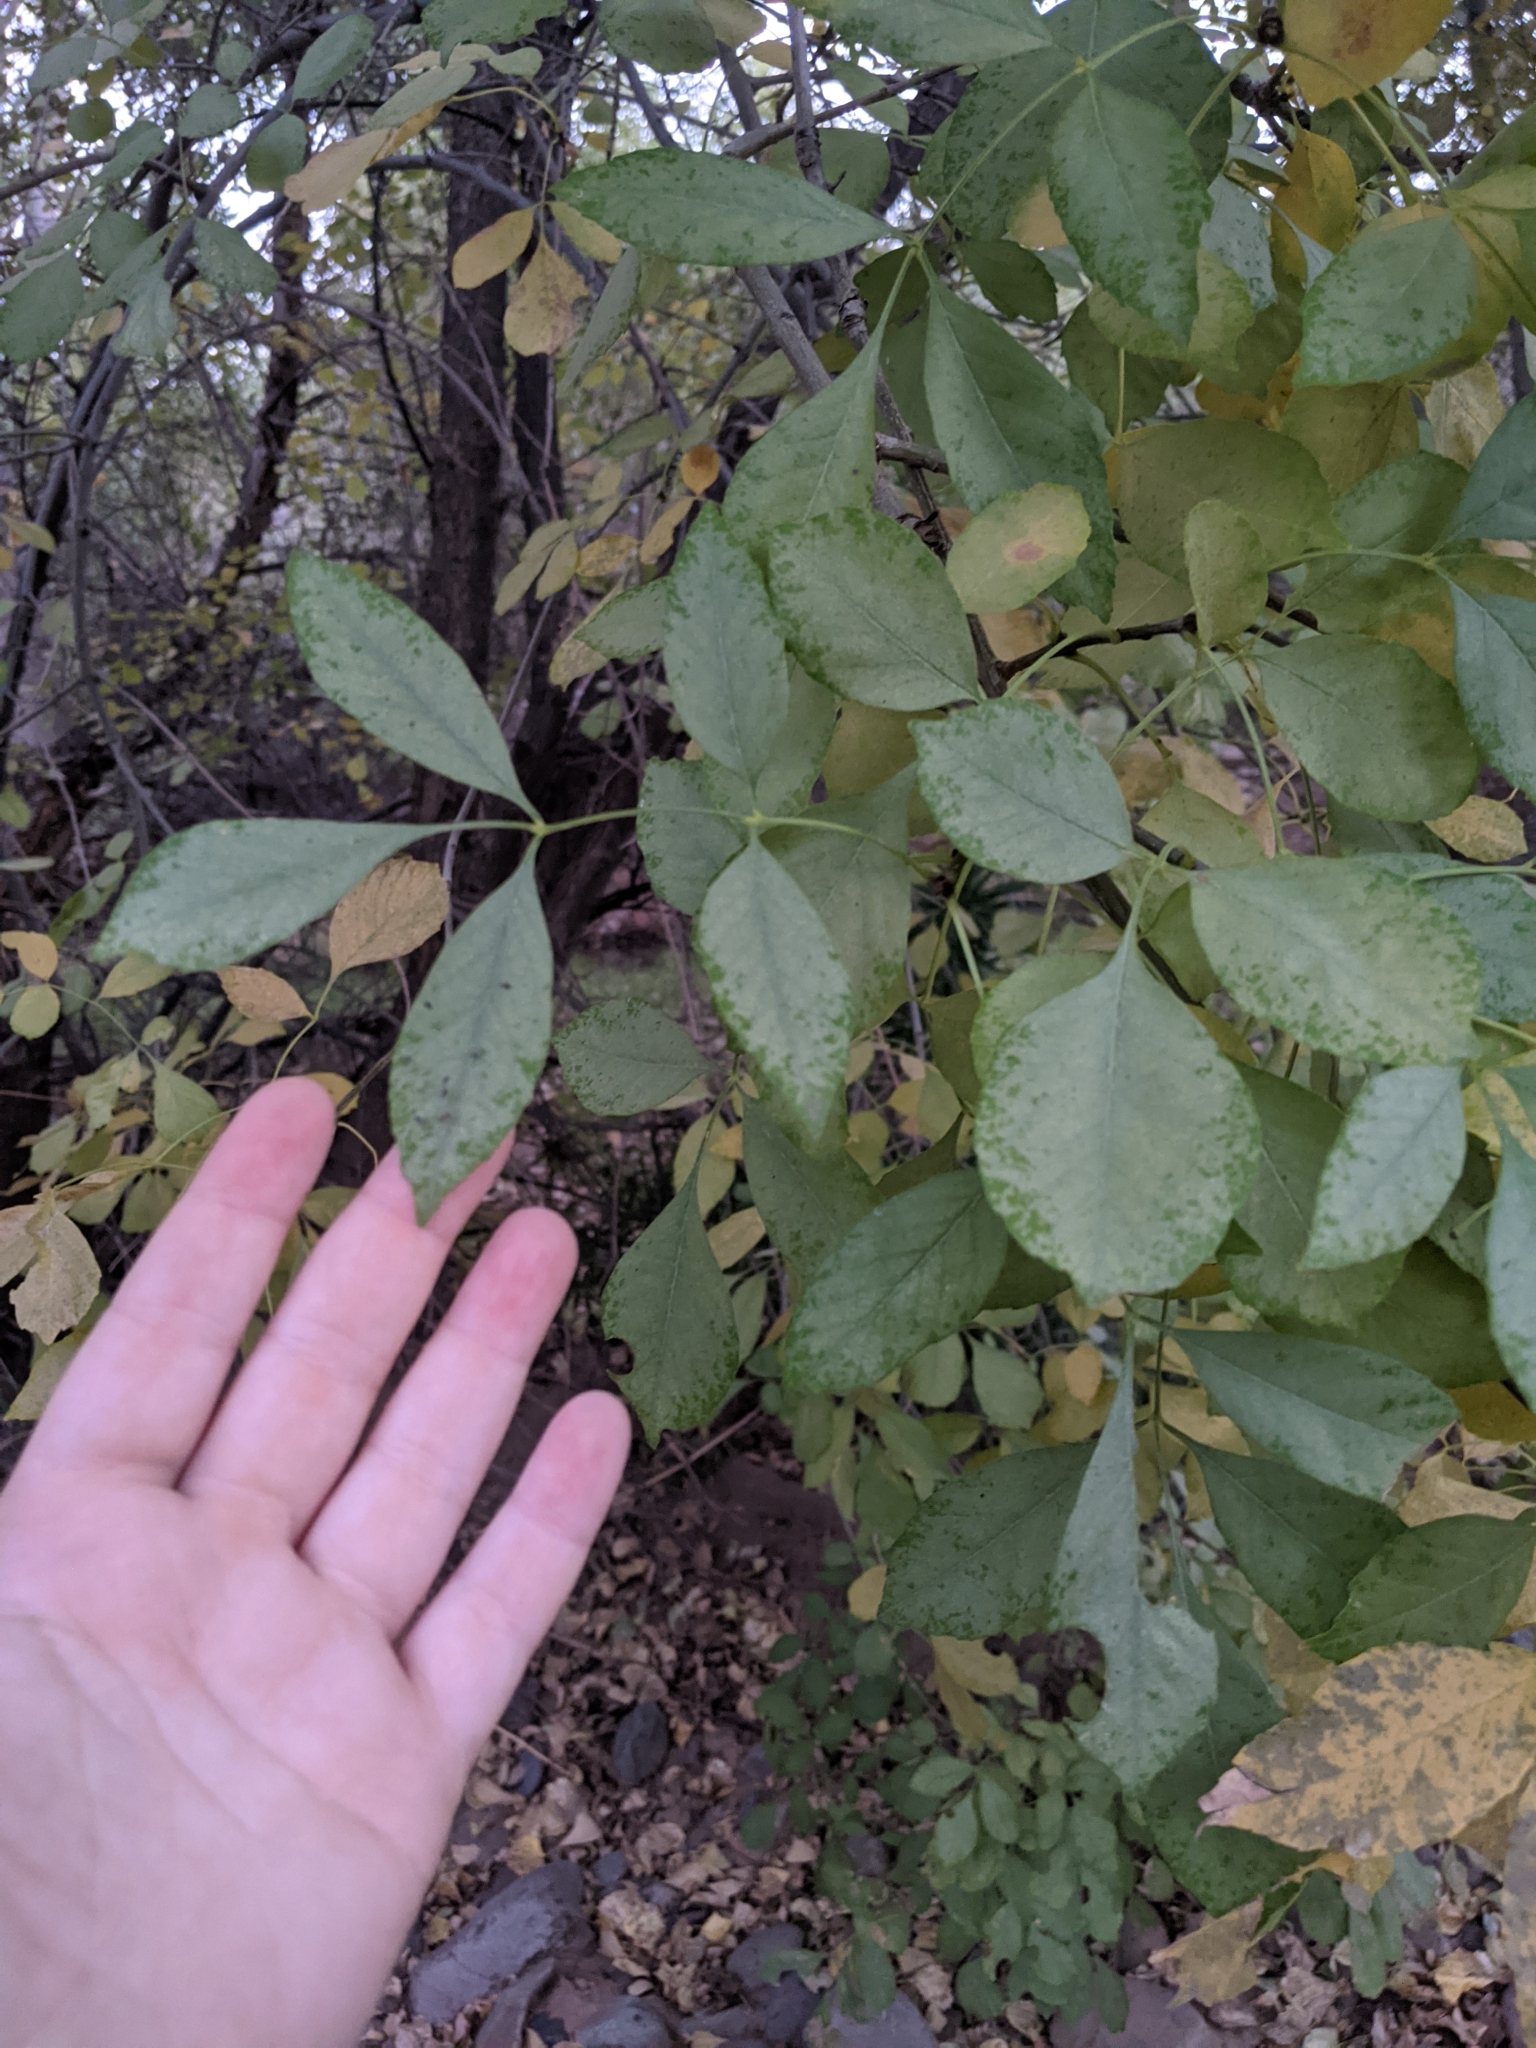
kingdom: Plantae
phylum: Tracheophyta
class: Magnoliopsida
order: Lamiales
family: Oleaceae
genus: Fraxinus
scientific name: Fraxinus velutina
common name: Arizon ash
